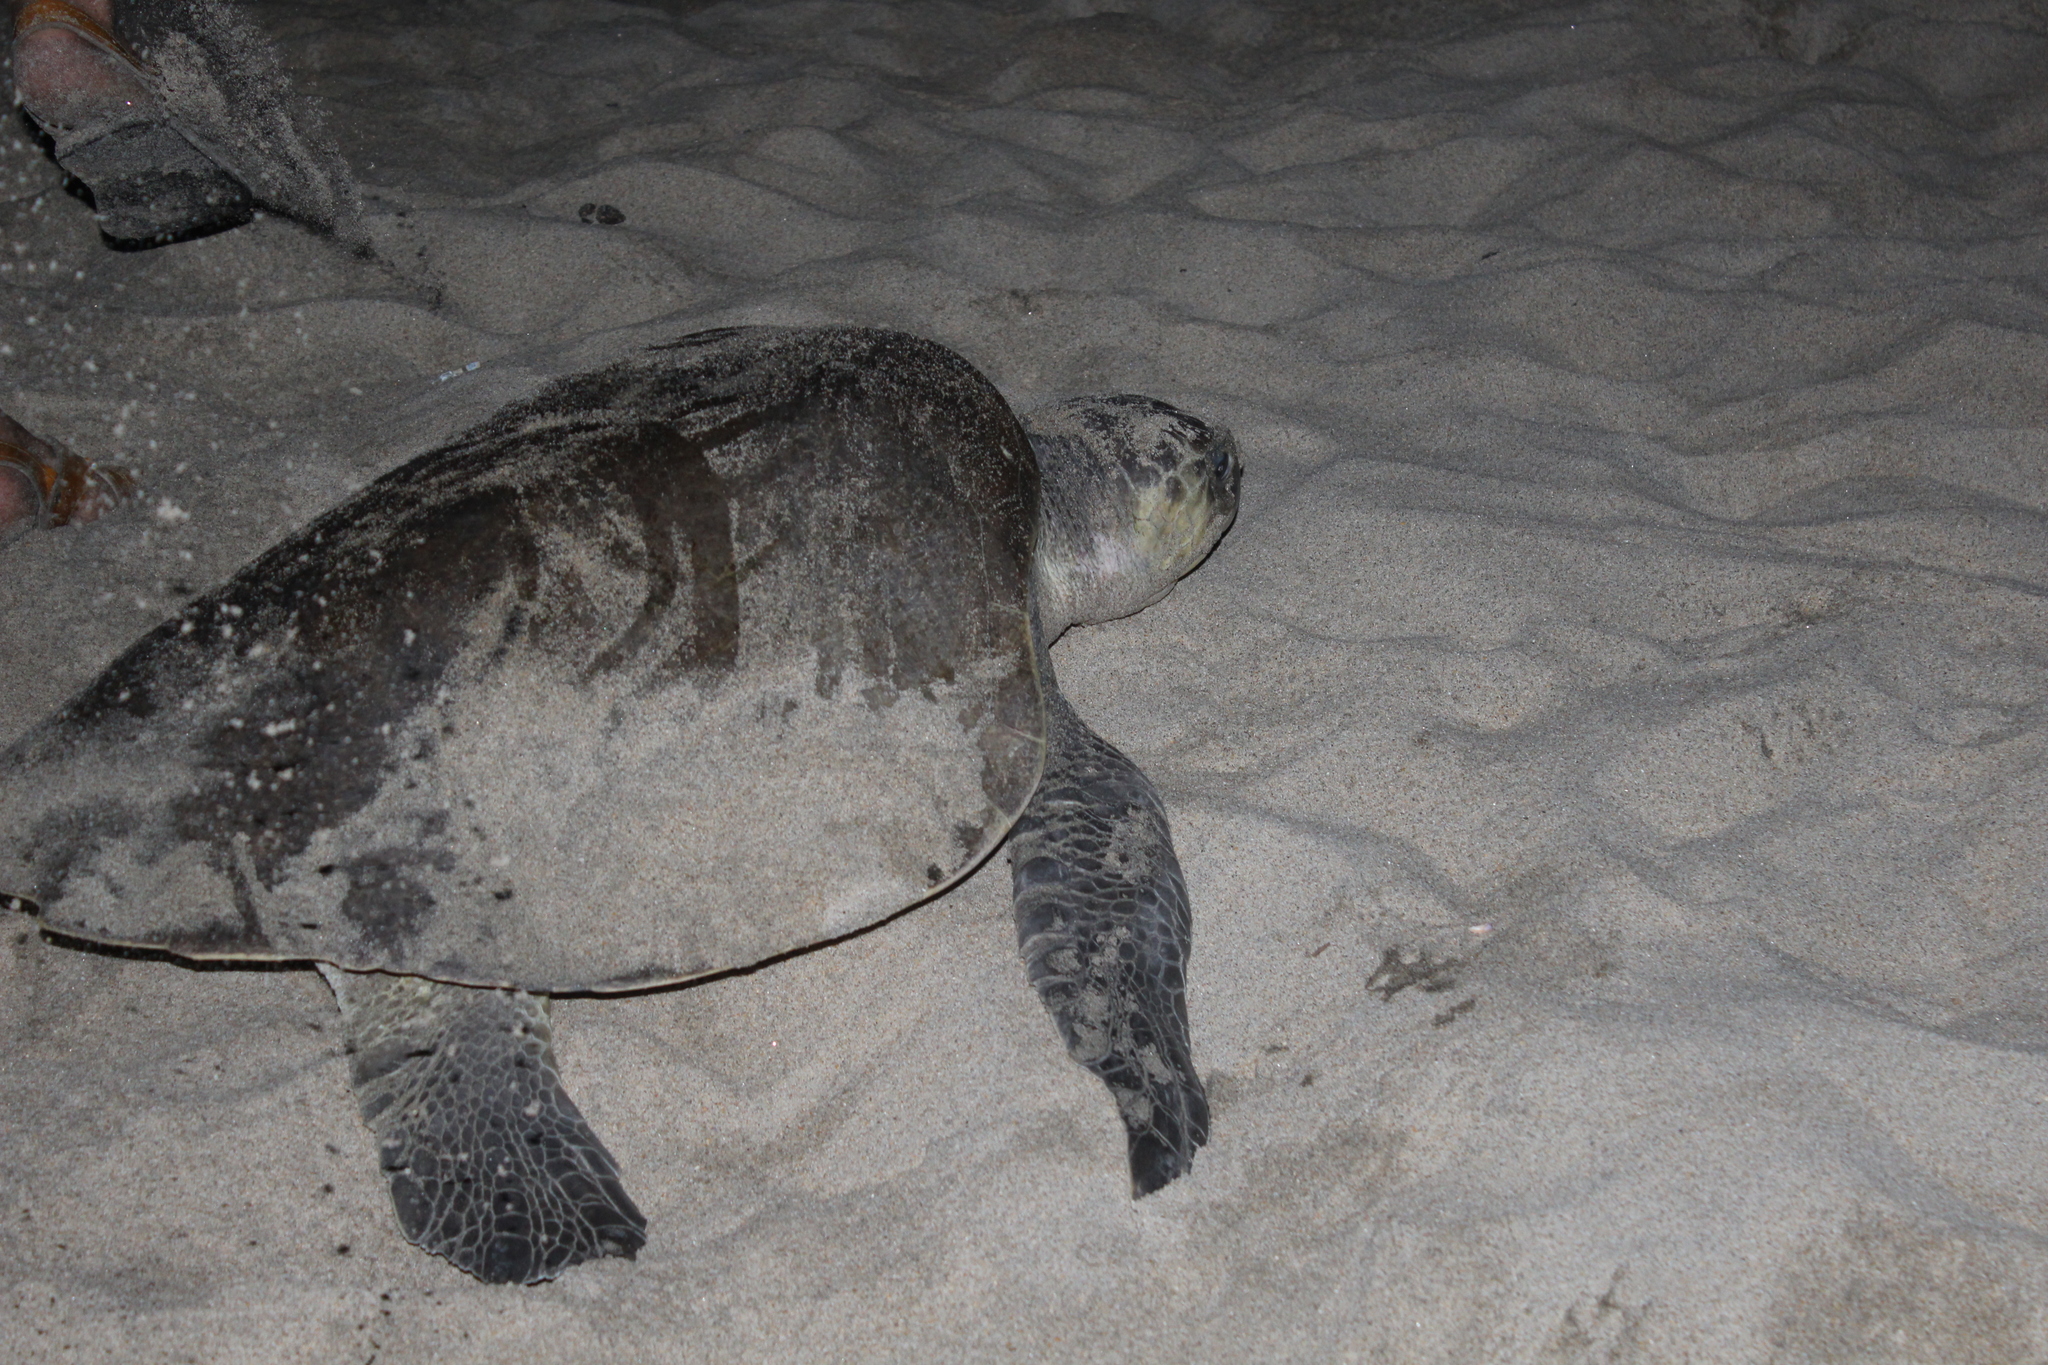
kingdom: Animalia
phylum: Chordata
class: Testudines
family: Cheloniidae
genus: Lepidochelys
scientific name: Lepidochelys olivacea
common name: Olive ridley
